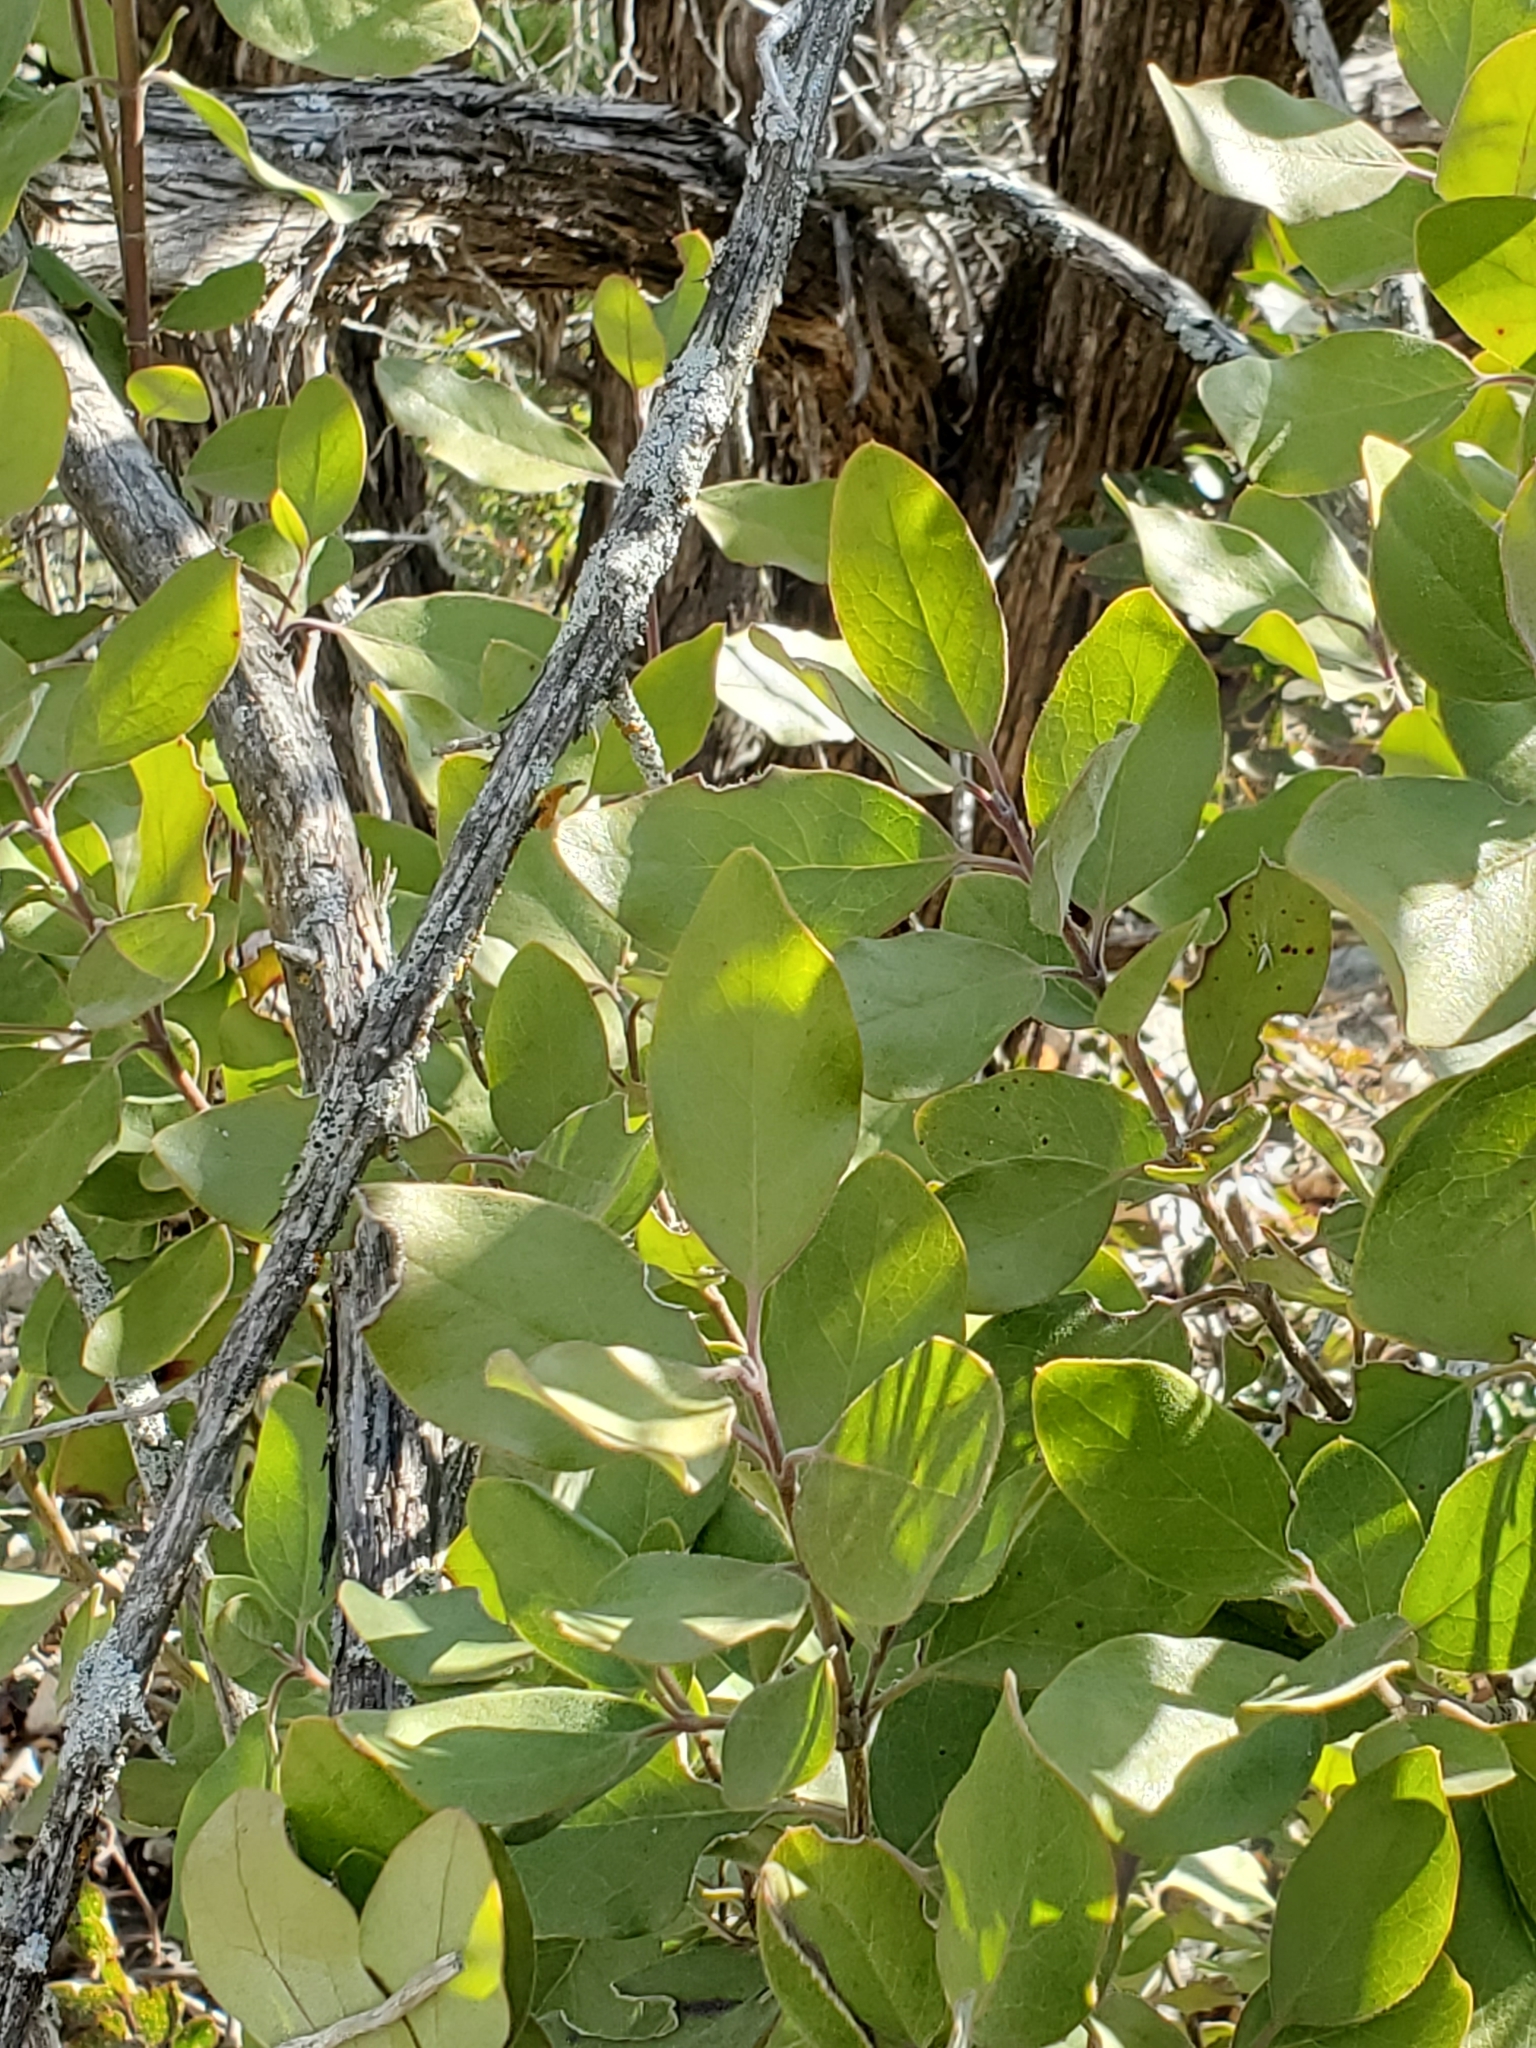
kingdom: Plantae
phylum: Tracheophyta
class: Magnoliopsida
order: Garryales
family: Garryaceae
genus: Garrya
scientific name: Garrya lindheimeri
